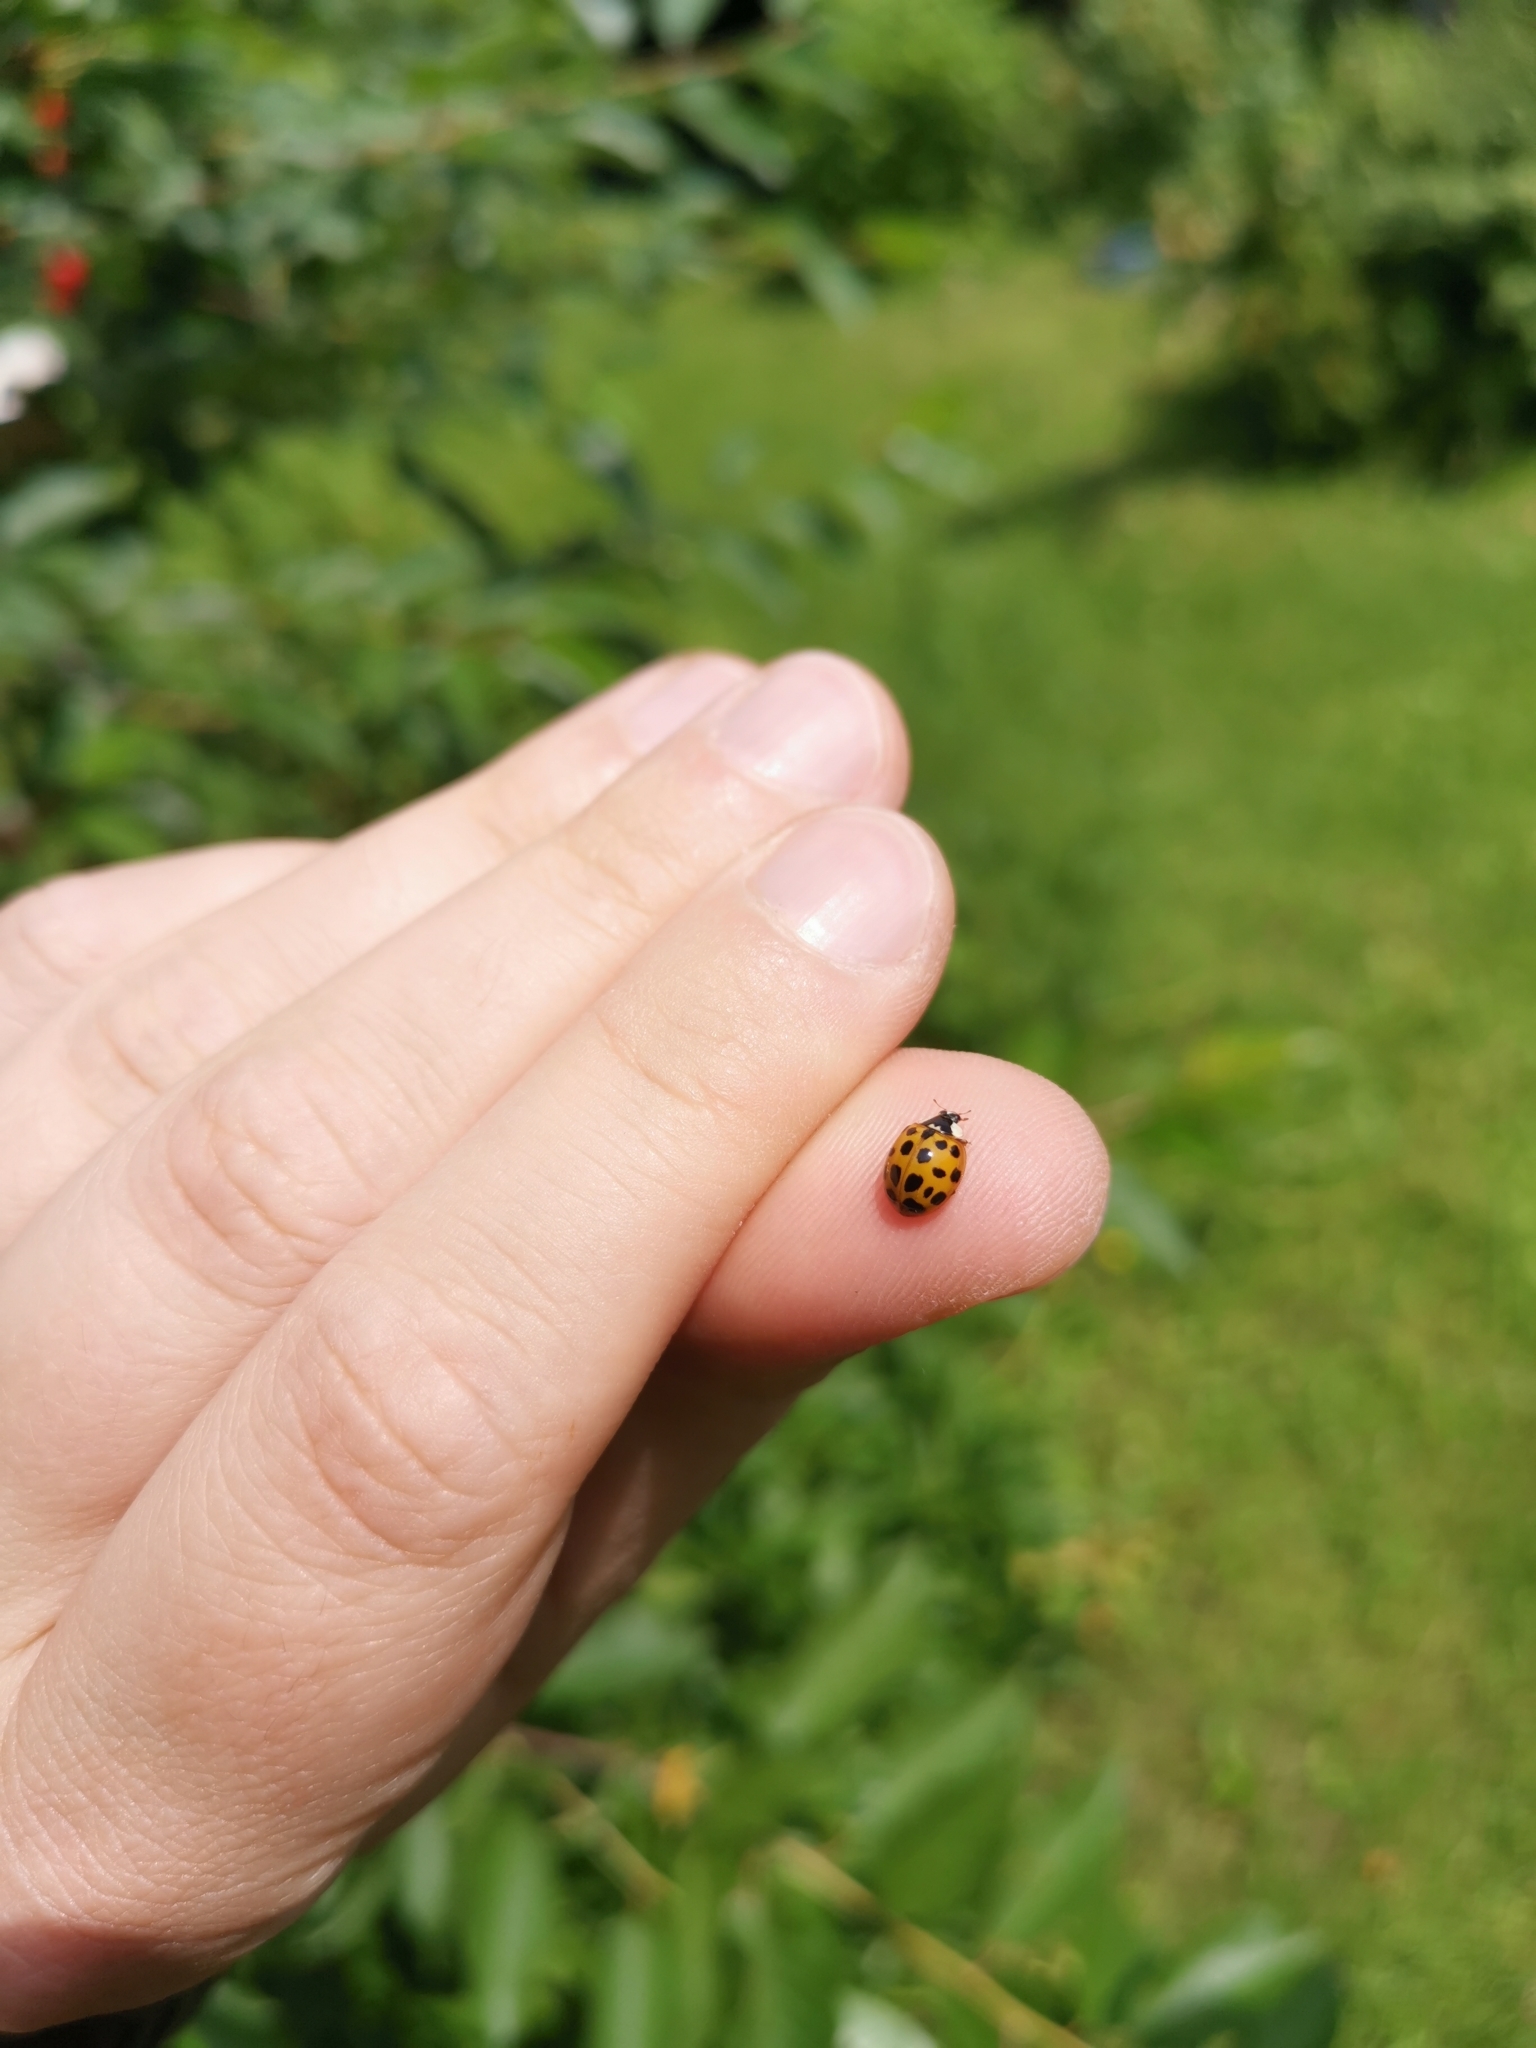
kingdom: Animalia
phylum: Arthropoda
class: Insecta
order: Coleoptera
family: Coccinellidae
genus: Harmonia
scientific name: Harmonia axyridis
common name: Harlequin ladybird
